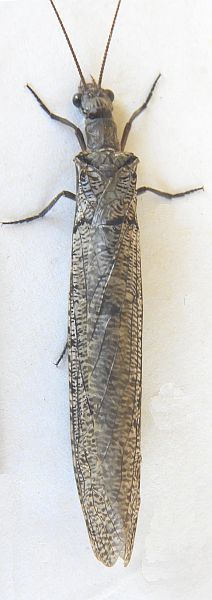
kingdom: Animalia
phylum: Arthropoda
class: Insecta
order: Megaloptera
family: Corydalidae
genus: Neohermes
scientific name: Neohermes filicornis
